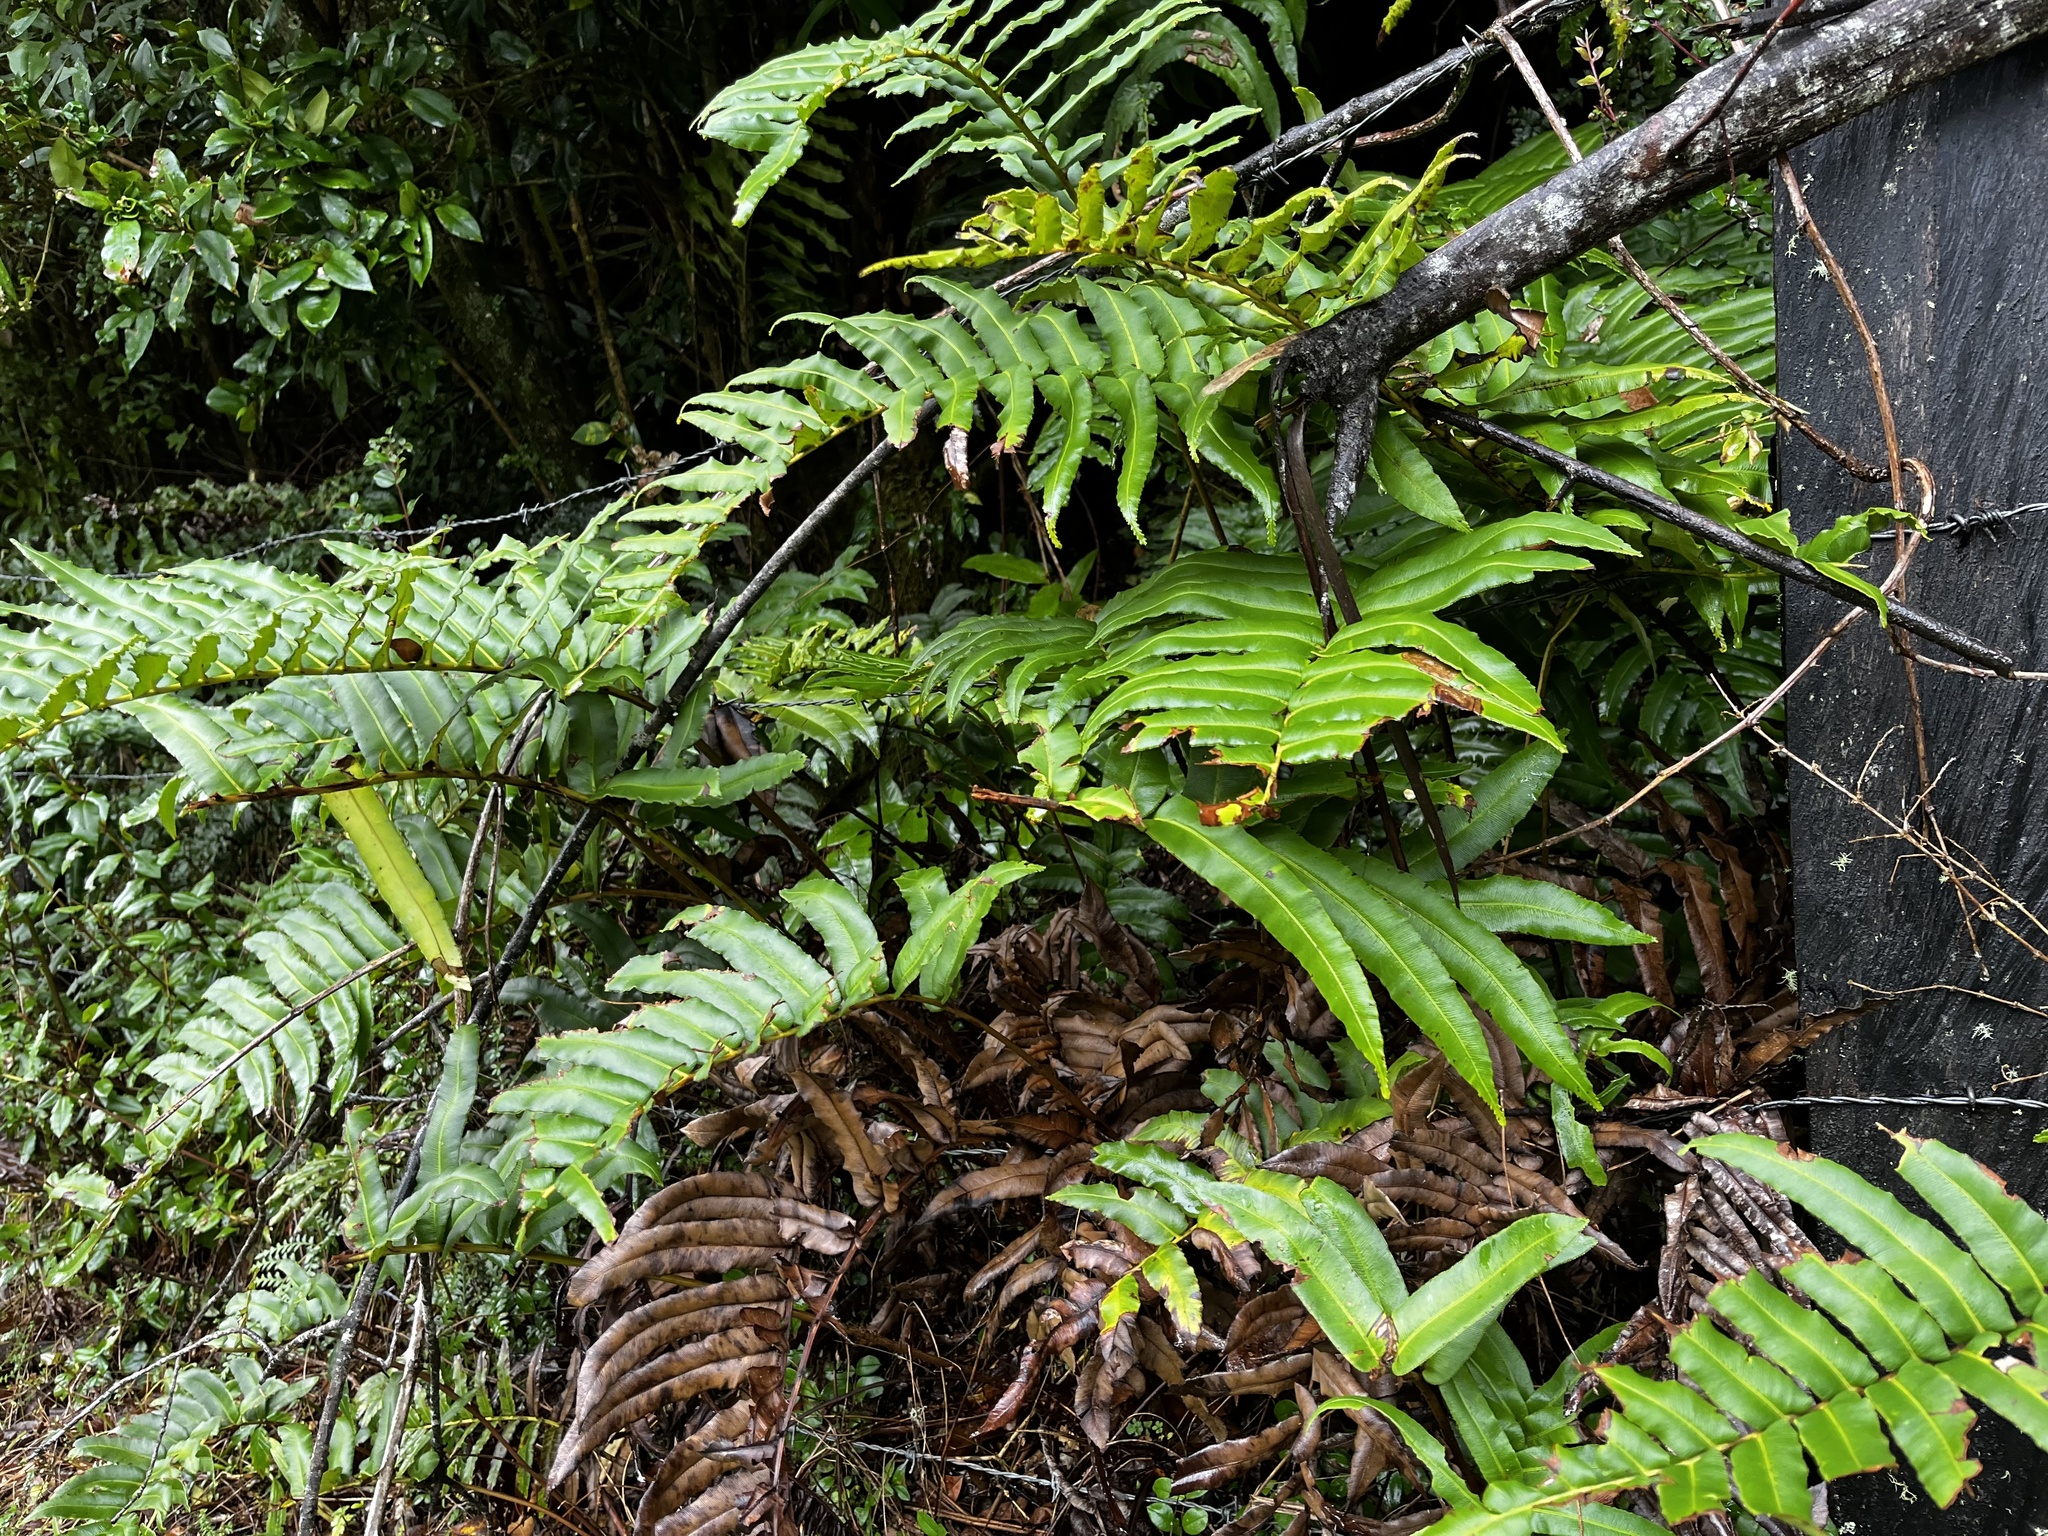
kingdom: Plantae
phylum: Tracheophyta
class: Polypodiopsida
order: Polypodiales
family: Blechnaceae
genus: Parablechnum
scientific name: Parablechnum chilense
